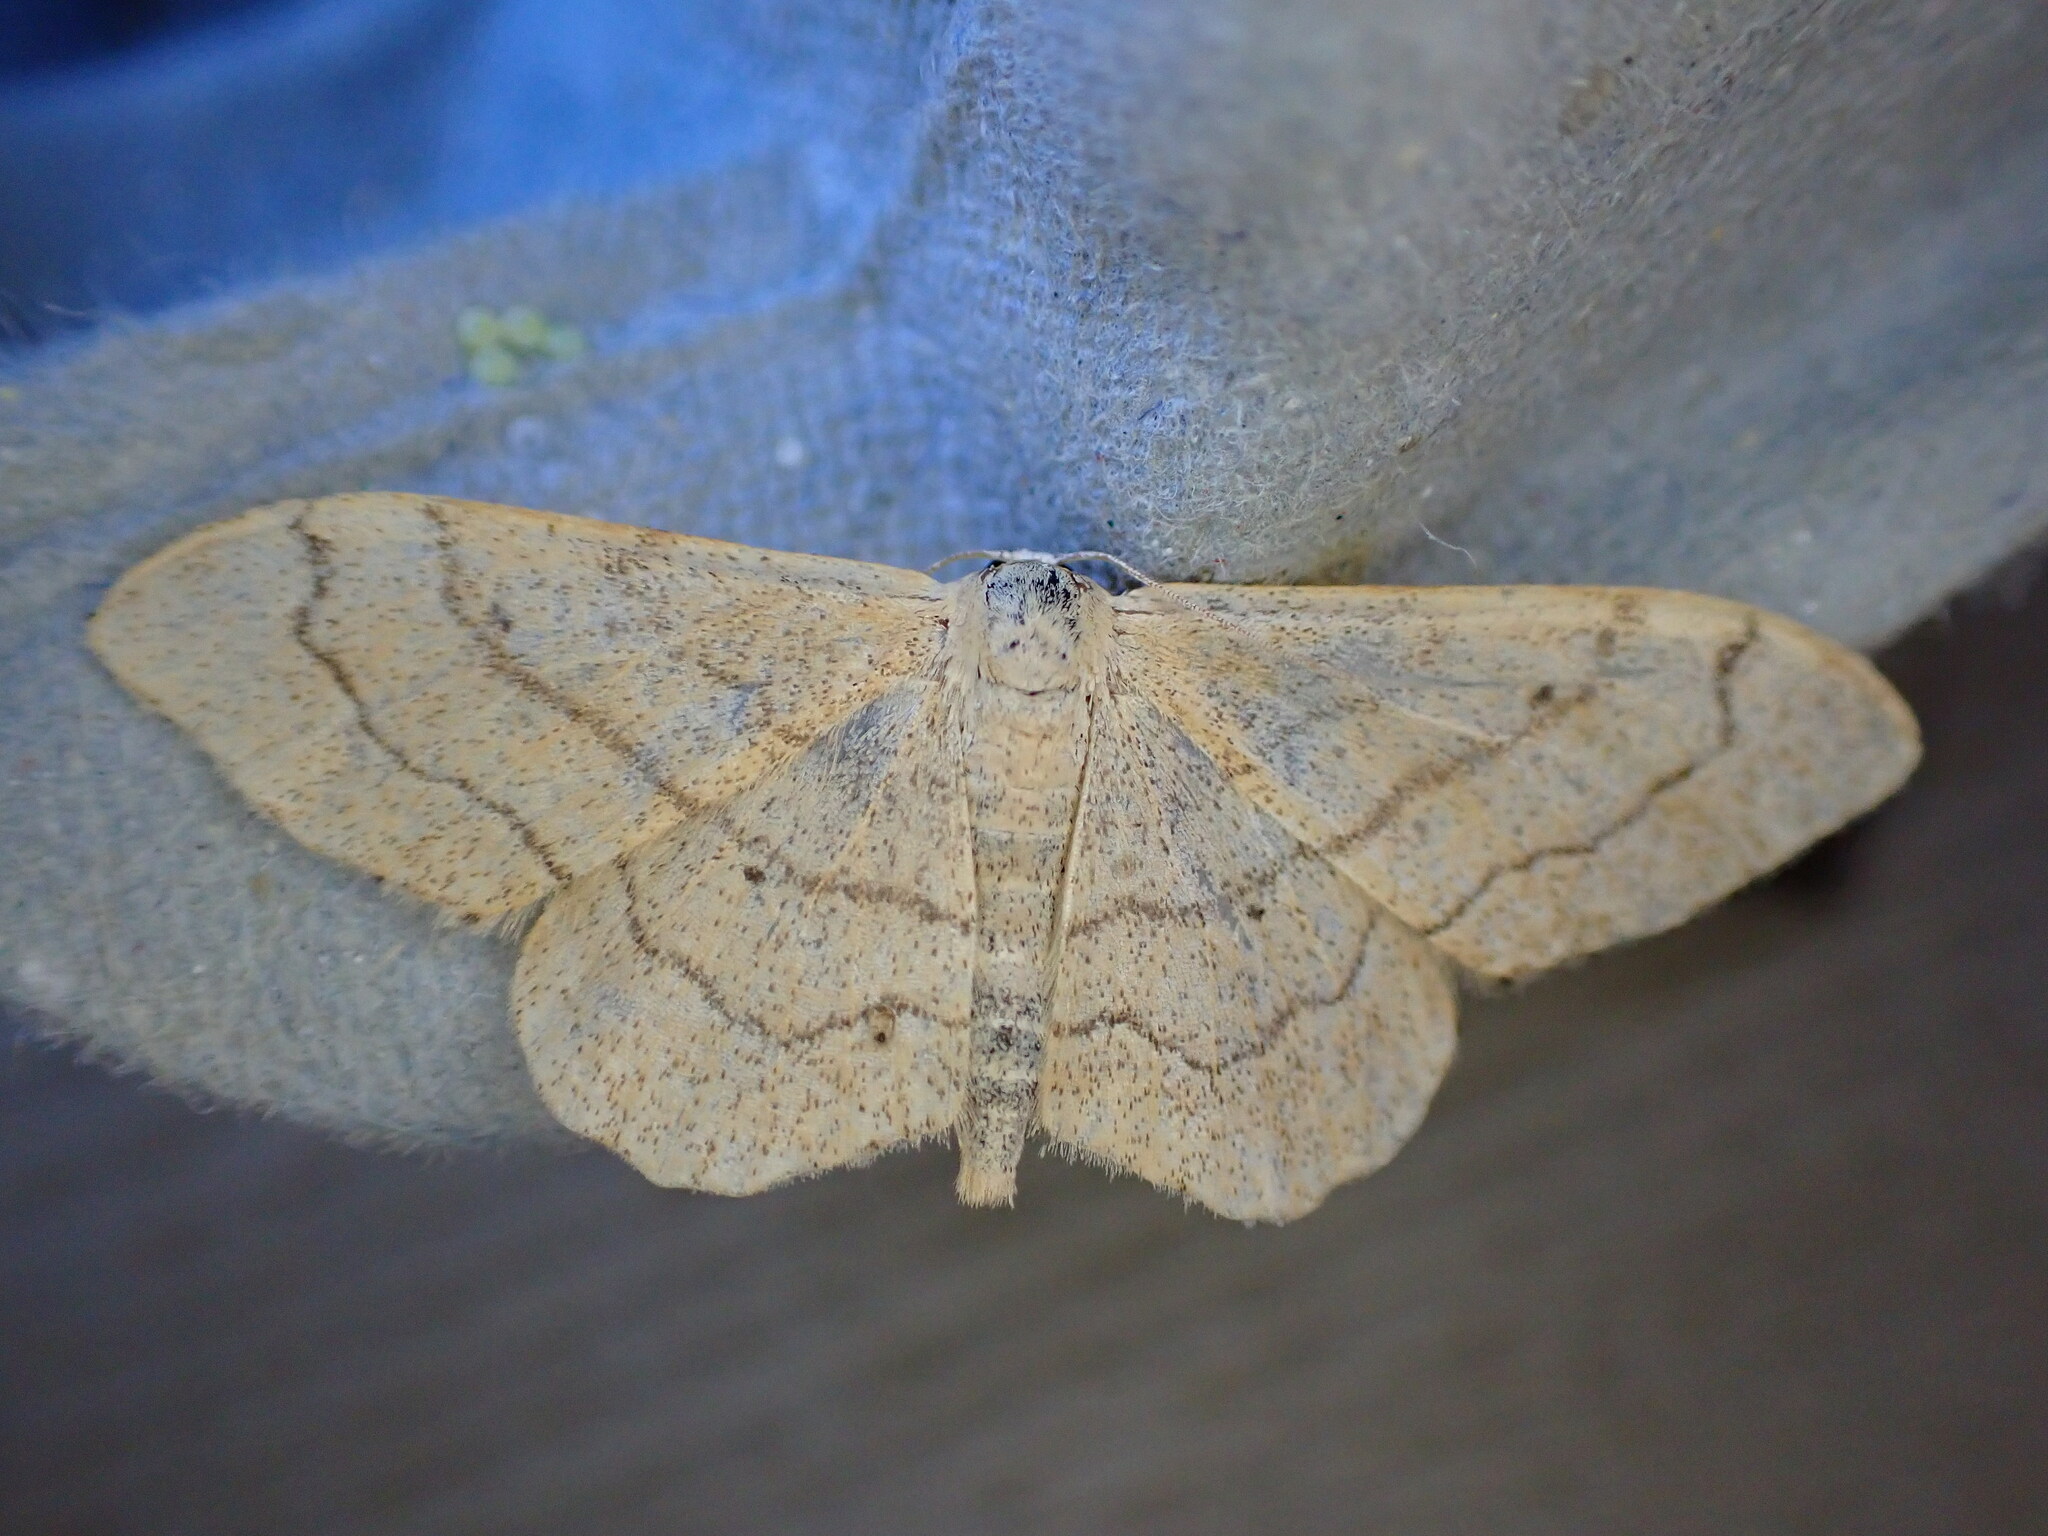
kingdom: Animalia
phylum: Arthropoda
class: Insecta
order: Lepidoptera
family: Geometridae
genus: Idaea
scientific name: Idaea aversata
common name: Riband wave
